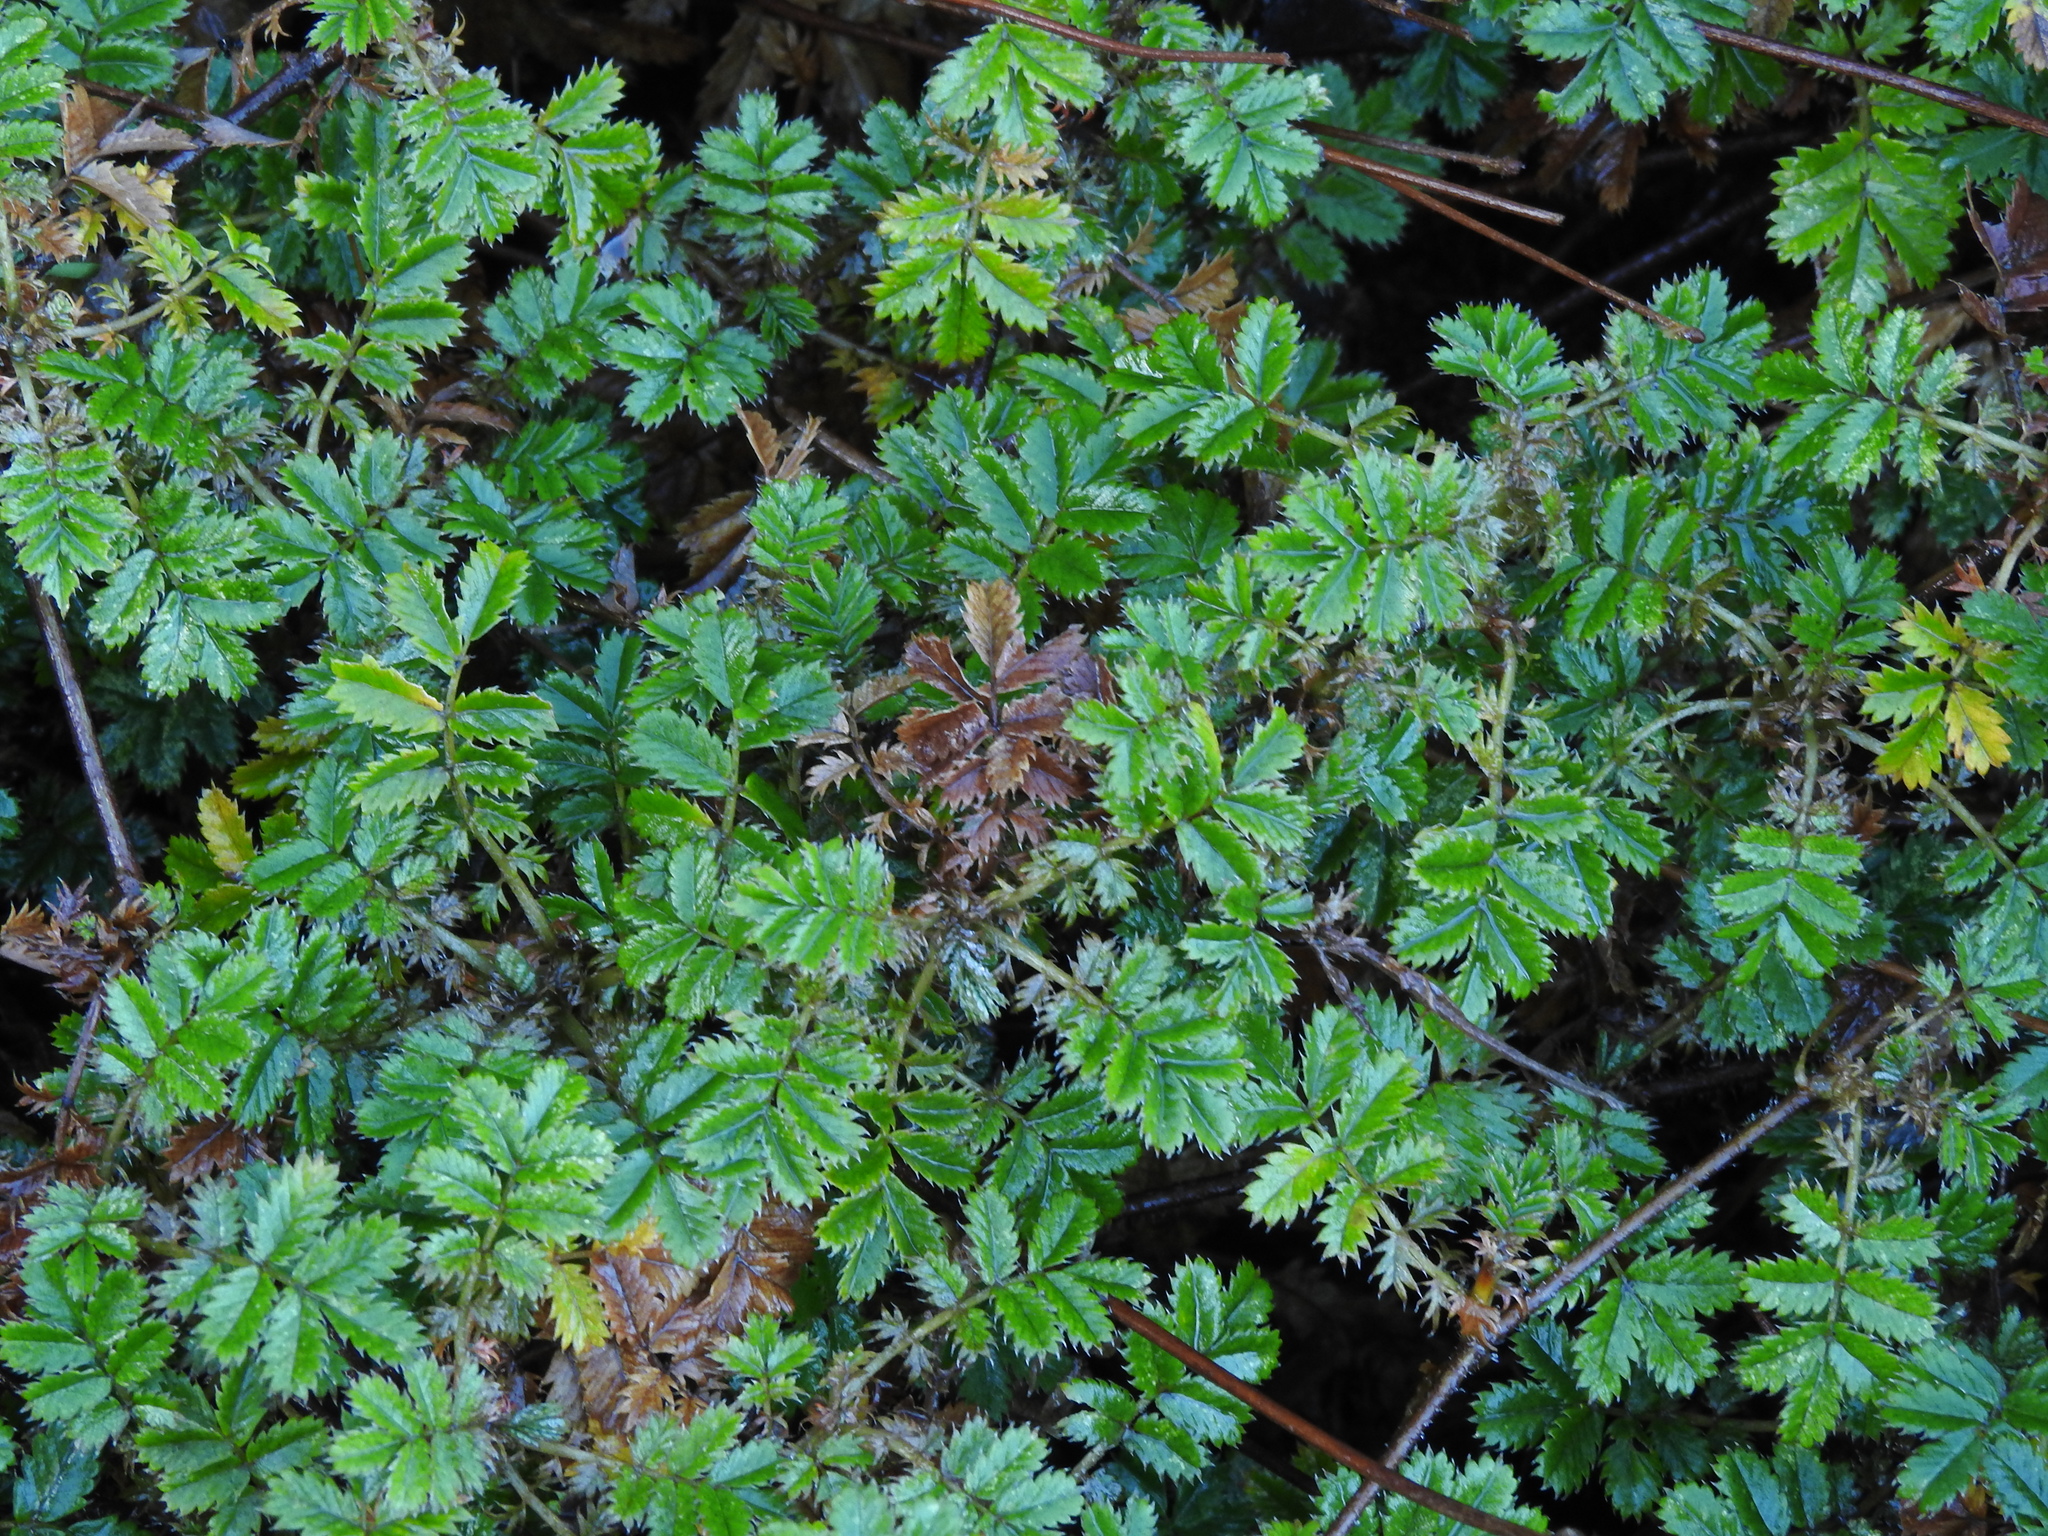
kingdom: Plantae
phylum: Tracheophyta
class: Magnoliopsida
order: Rosales
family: Rosaceae
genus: Acaena
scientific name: Acaena anserinifolia
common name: Bronze pirri-pirri-bur
